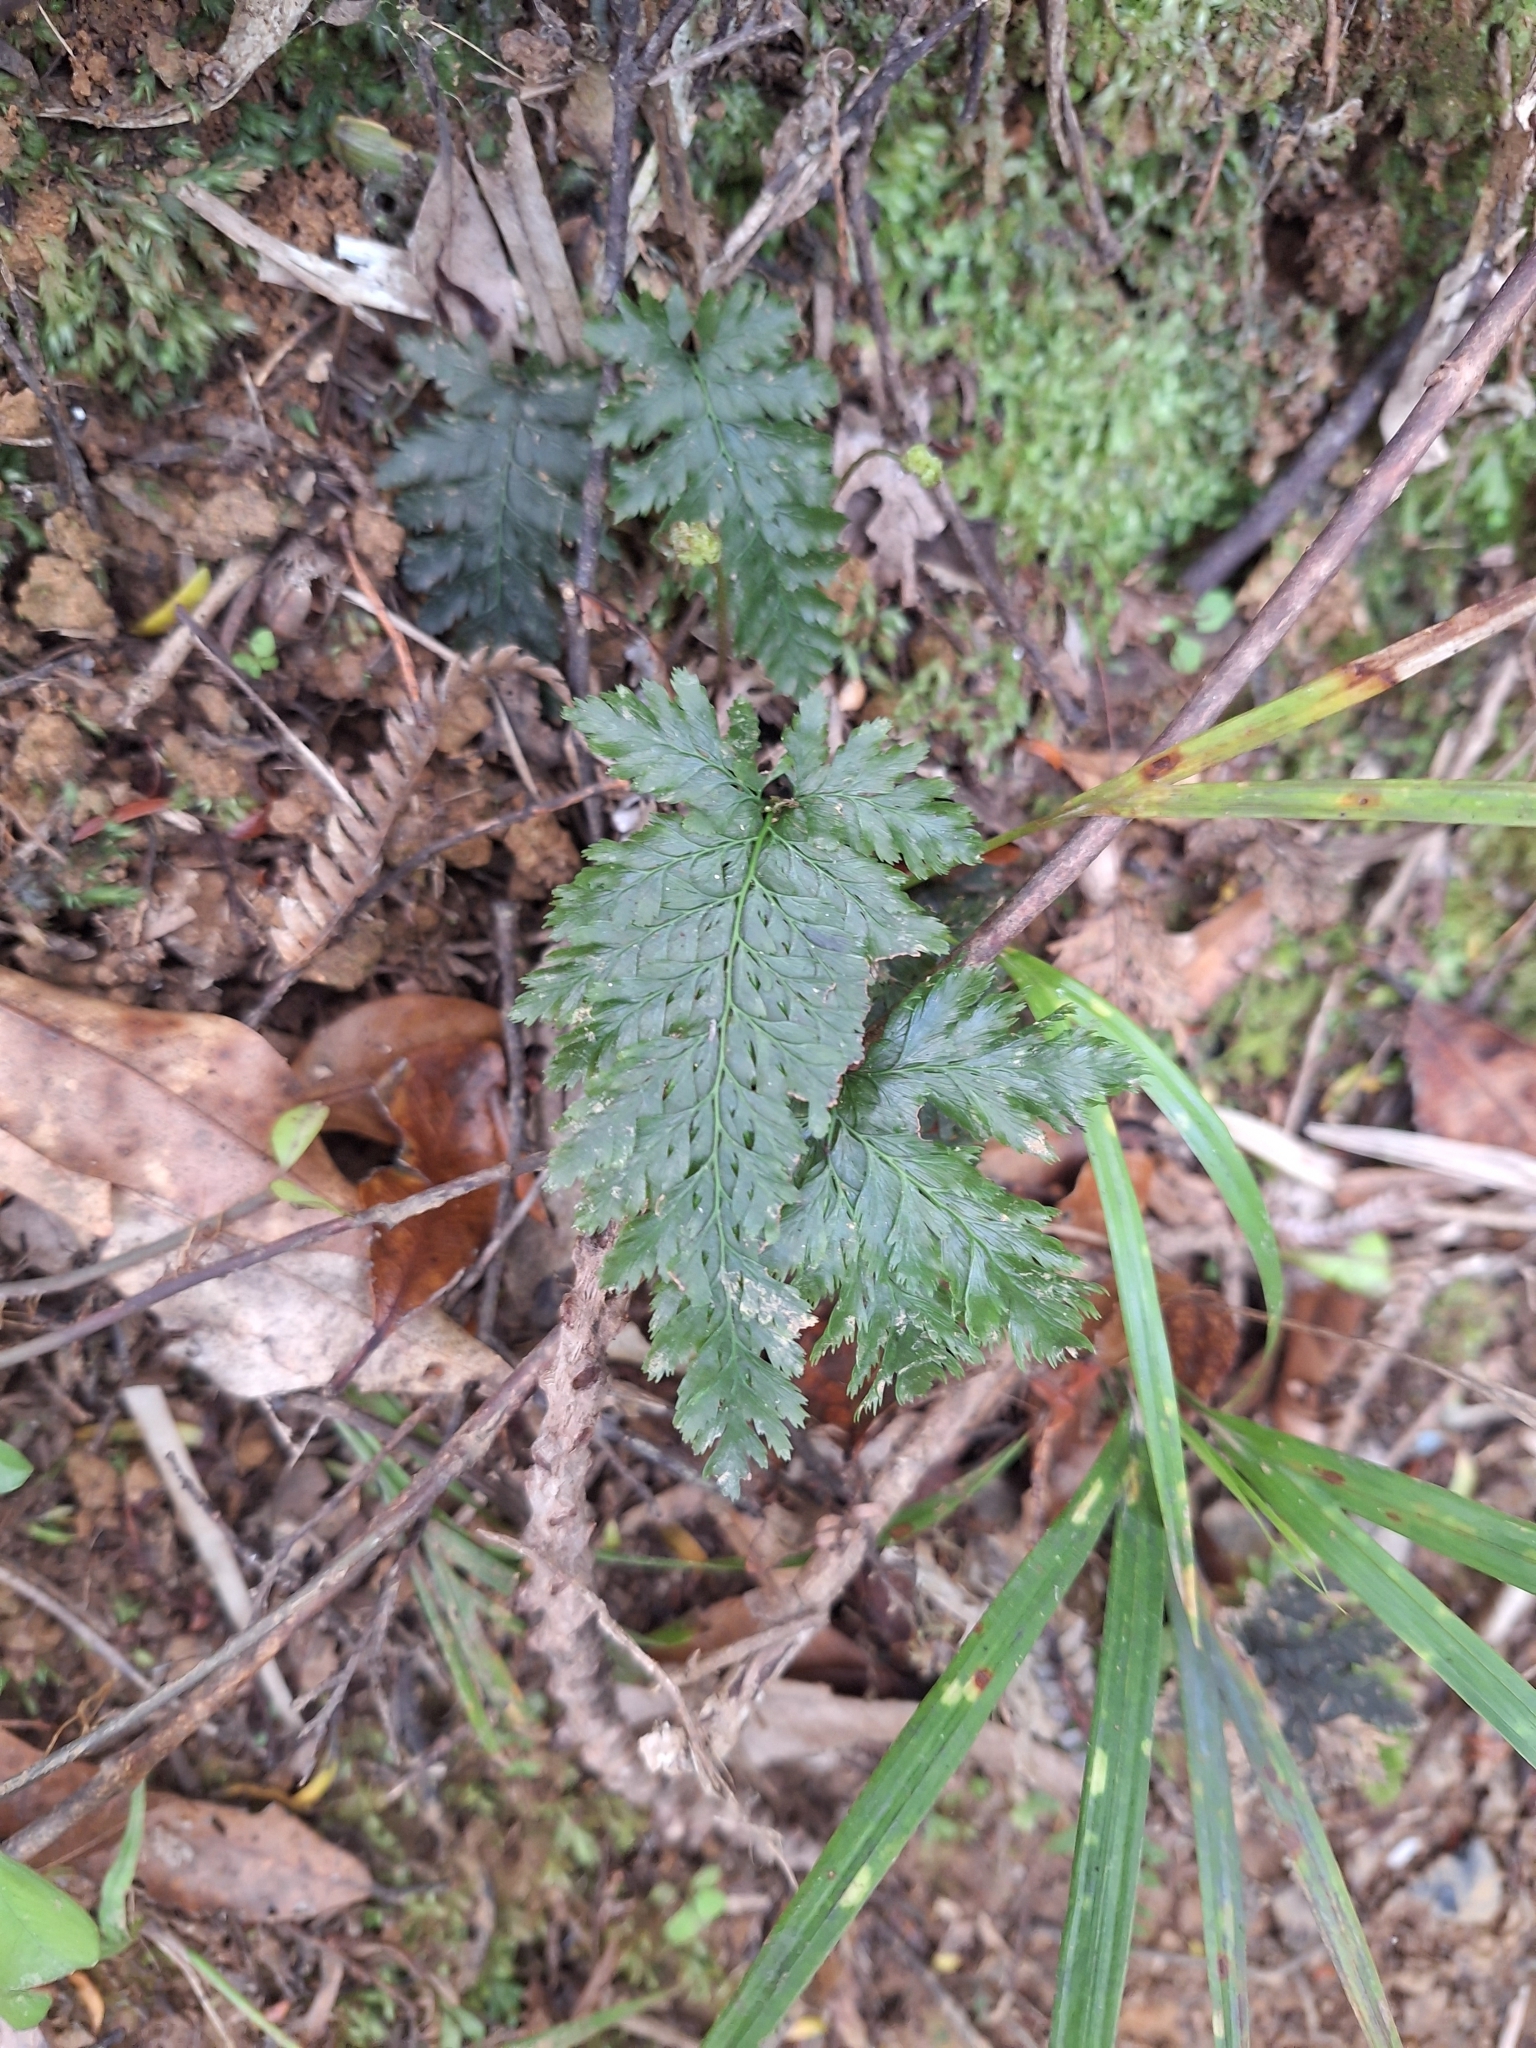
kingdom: Plantae
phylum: Tracheophyta
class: Polypodiopsida
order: Hymenophyllales
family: Hymenophyllaceae
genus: Abrodictyum
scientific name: Abrodictyum elongatum
